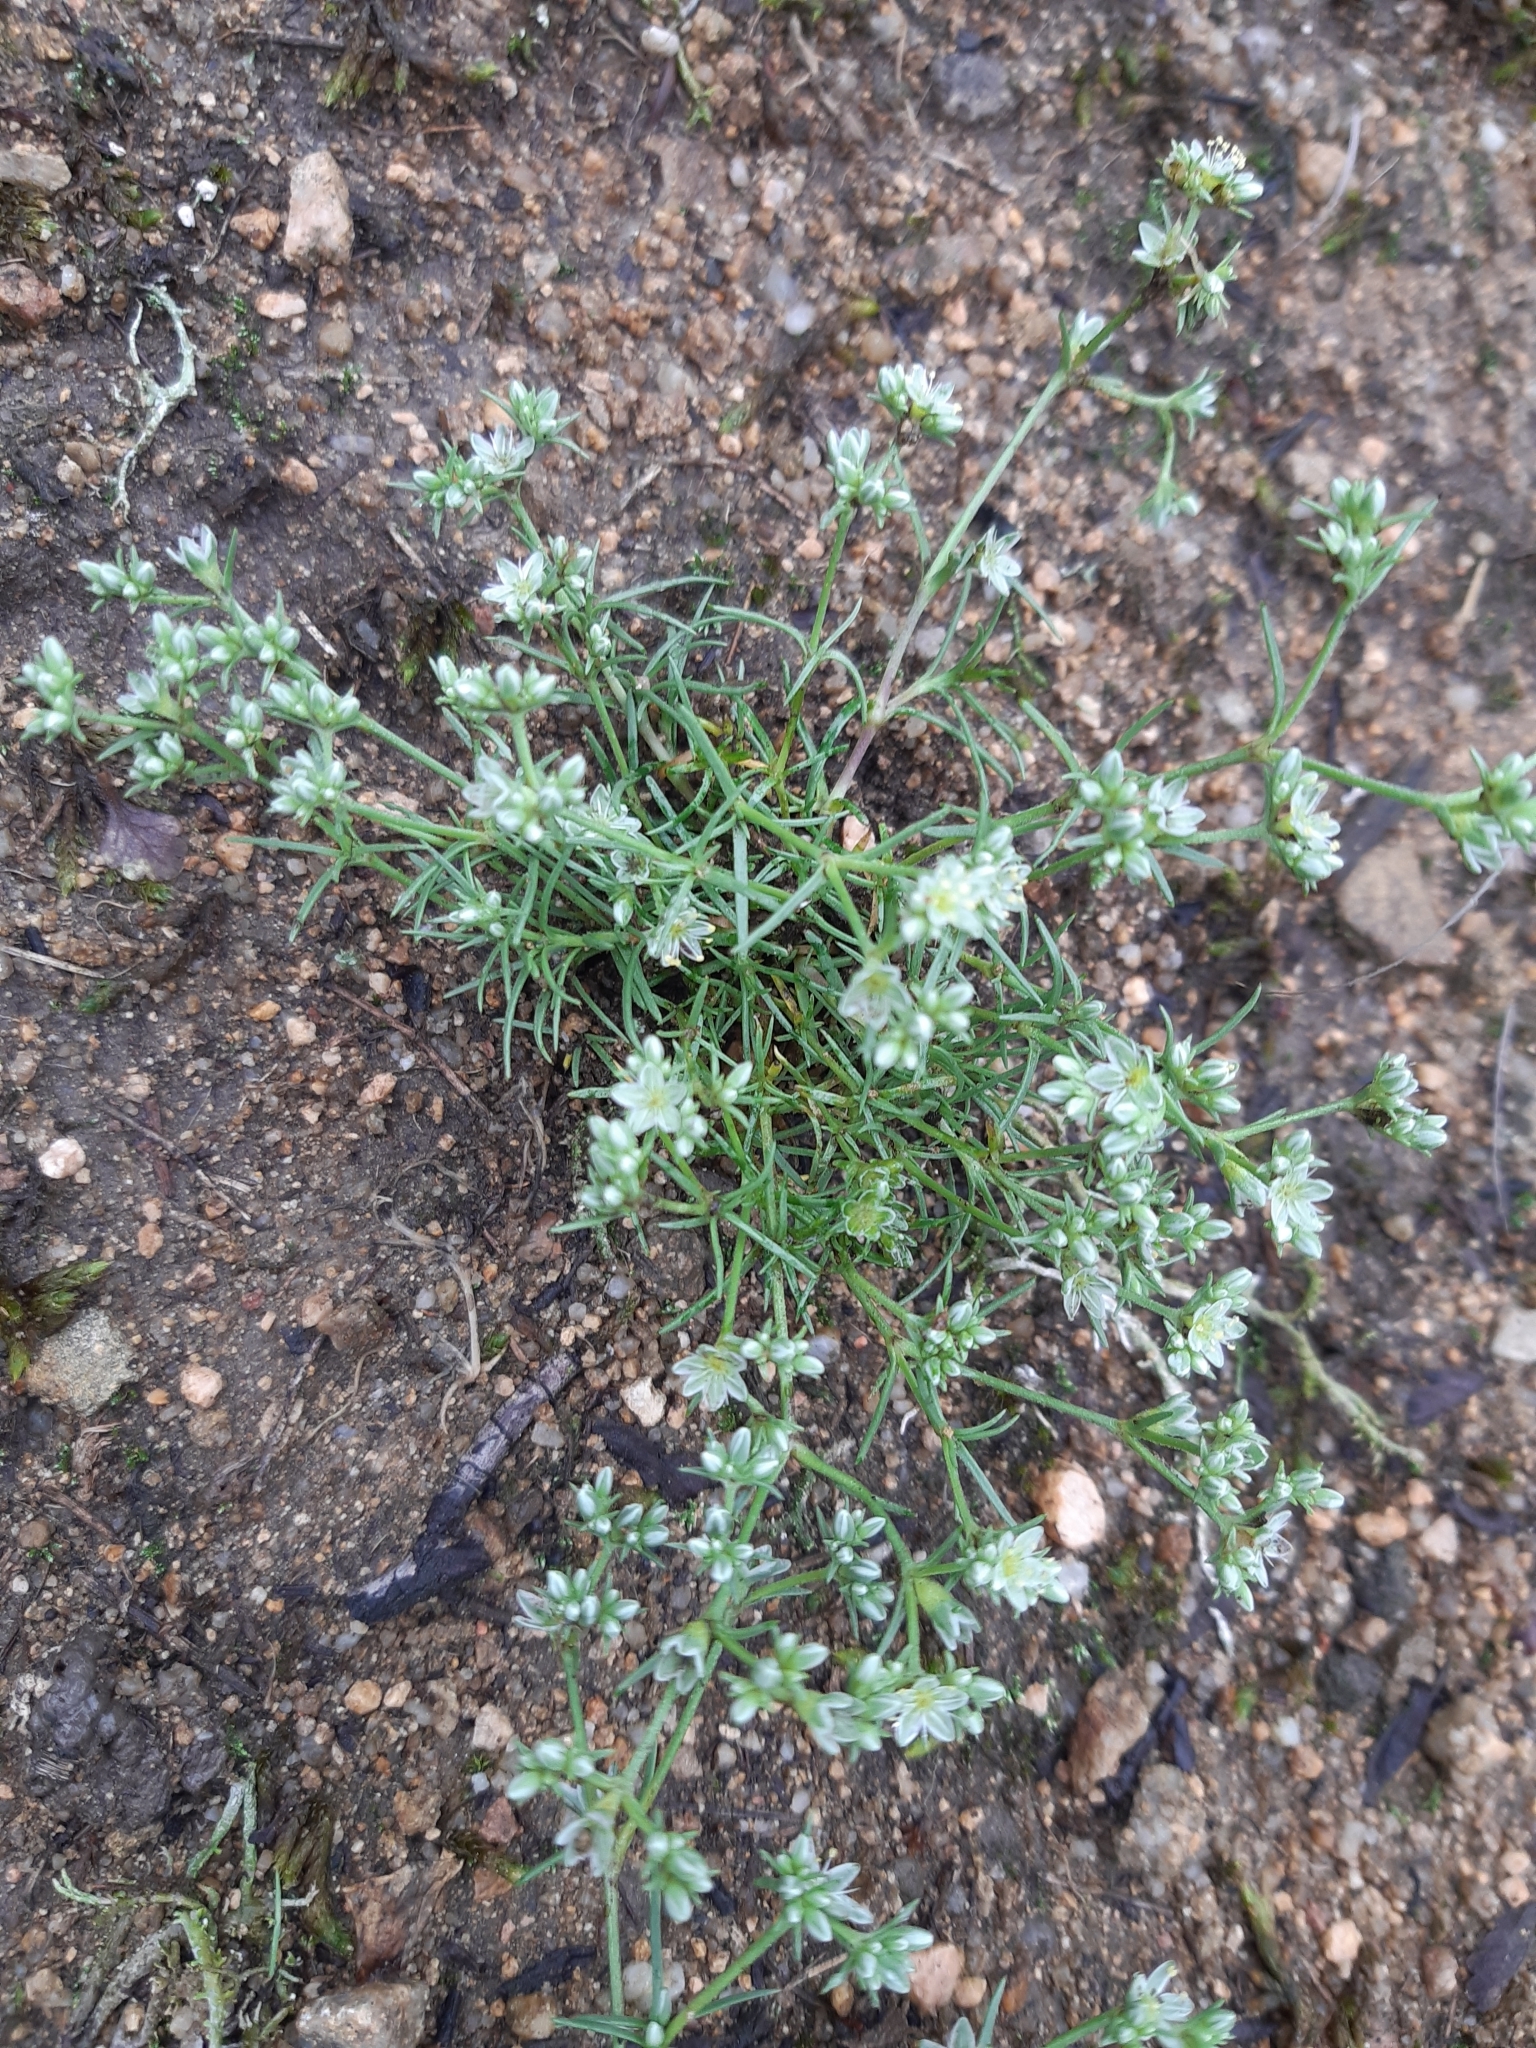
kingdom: Plantae
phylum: Tracheophyta
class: Magnoliopsida
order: Caryophyllales
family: Caryophyllaceae
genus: Scleranthus
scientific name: Scleranthus perennis
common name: Perennial knawel
